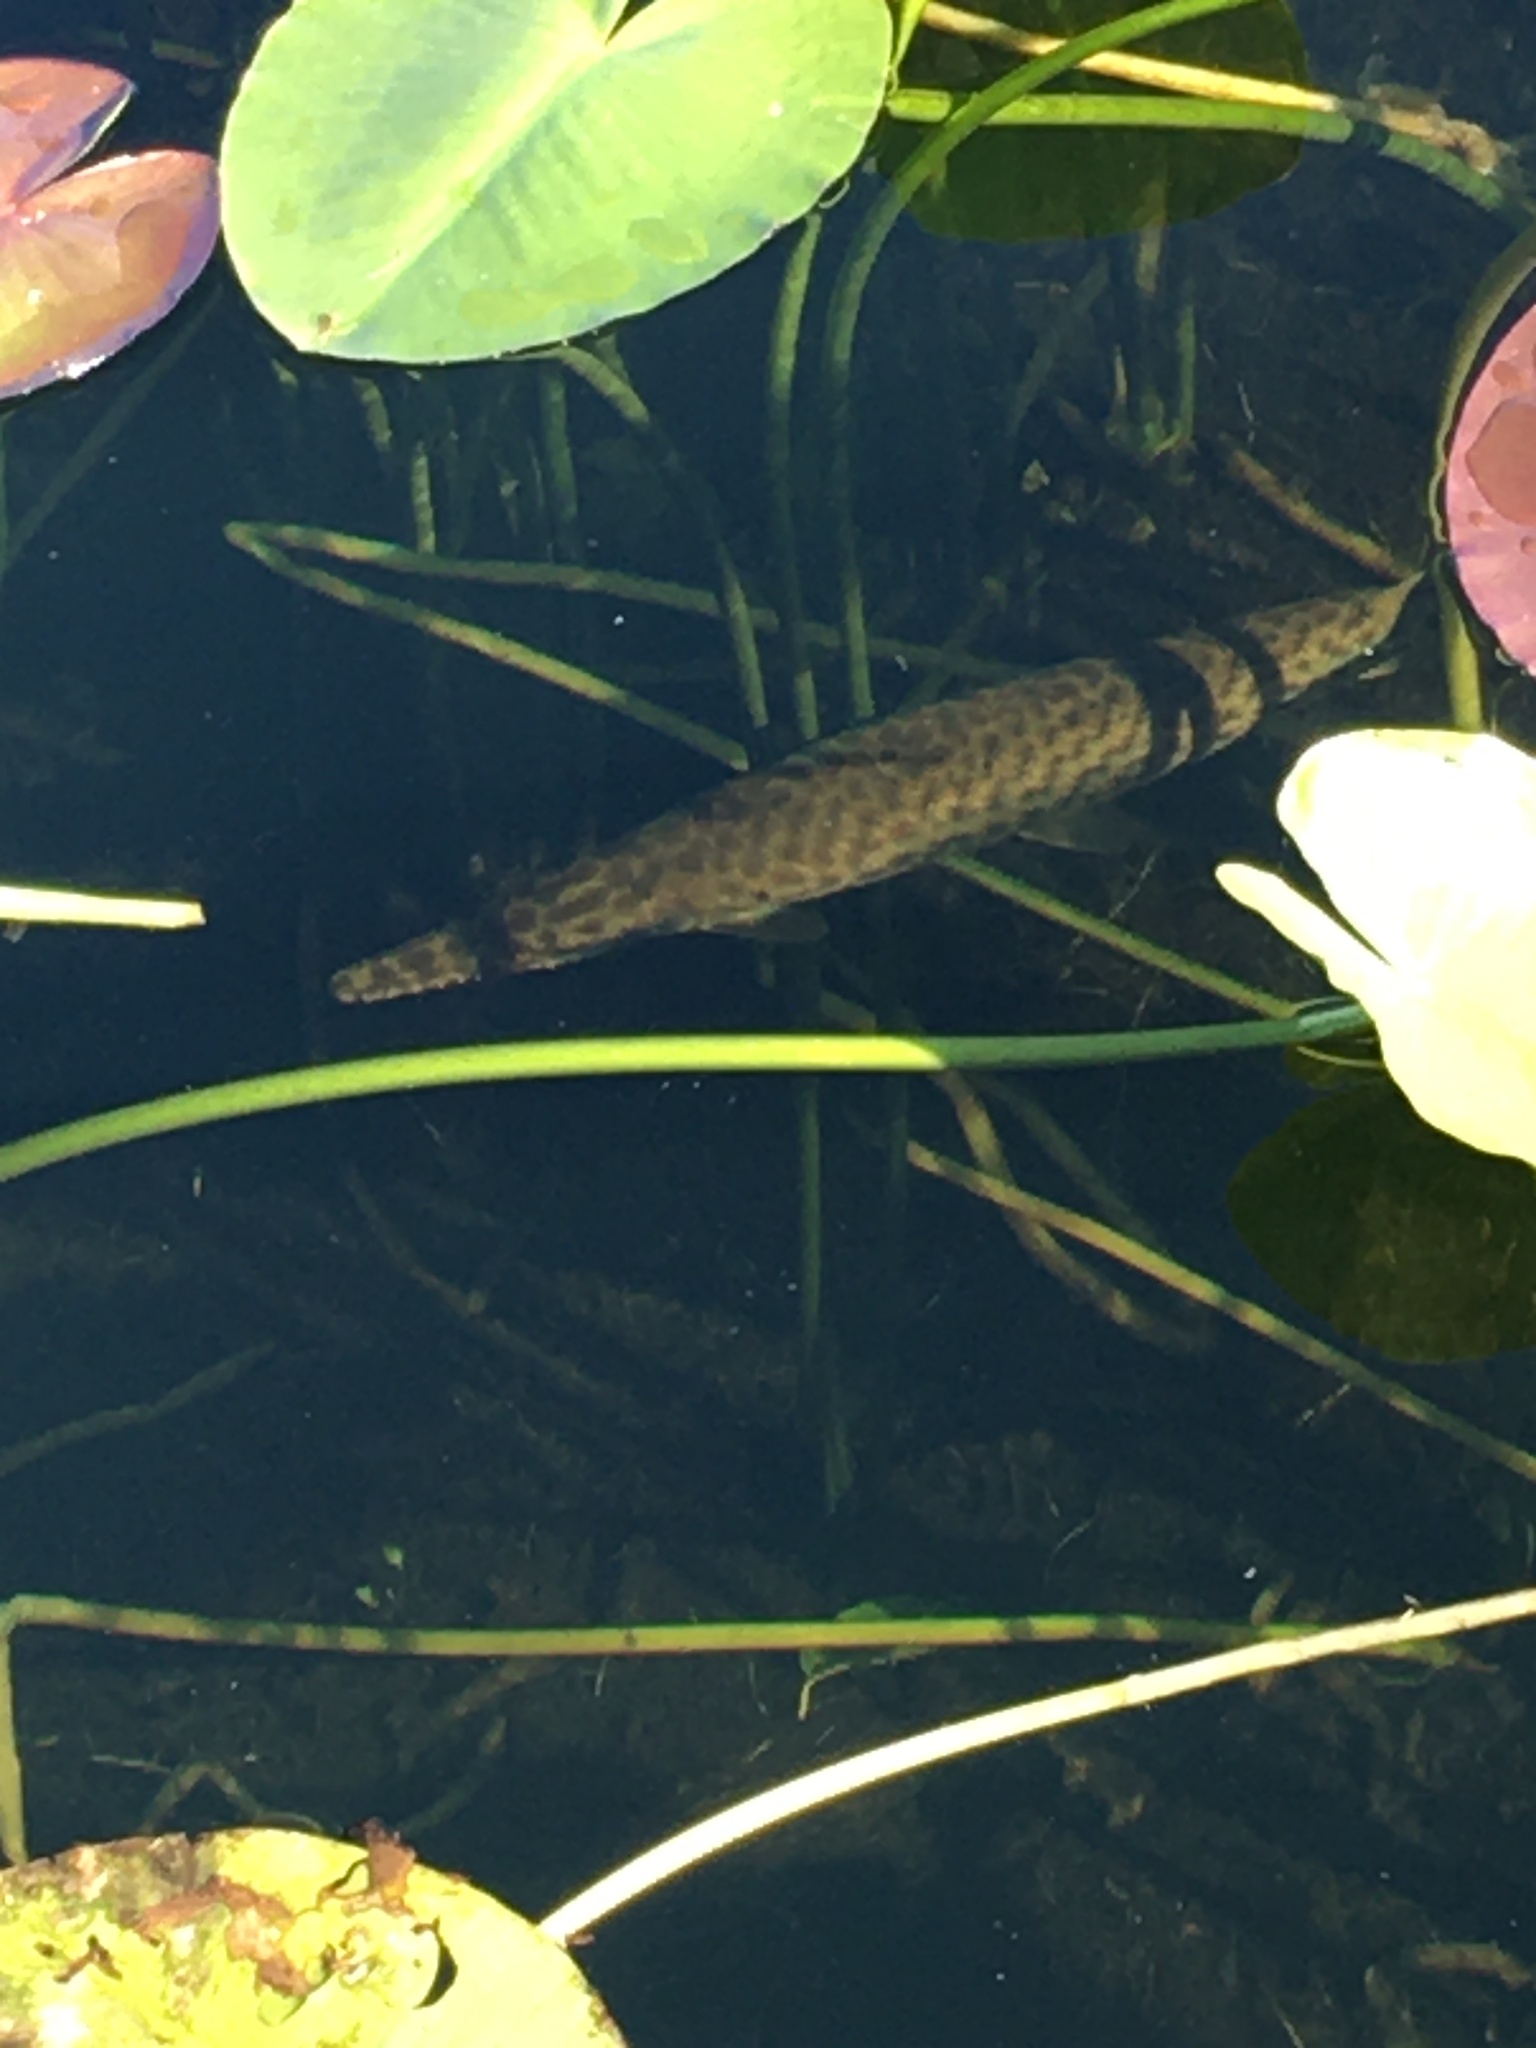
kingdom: Animalia
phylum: Chordata
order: Lepisosteiformes
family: Lepisosteidae
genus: Lepisosteus
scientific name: Lepisosteus platyrhincus
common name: Florida gar
